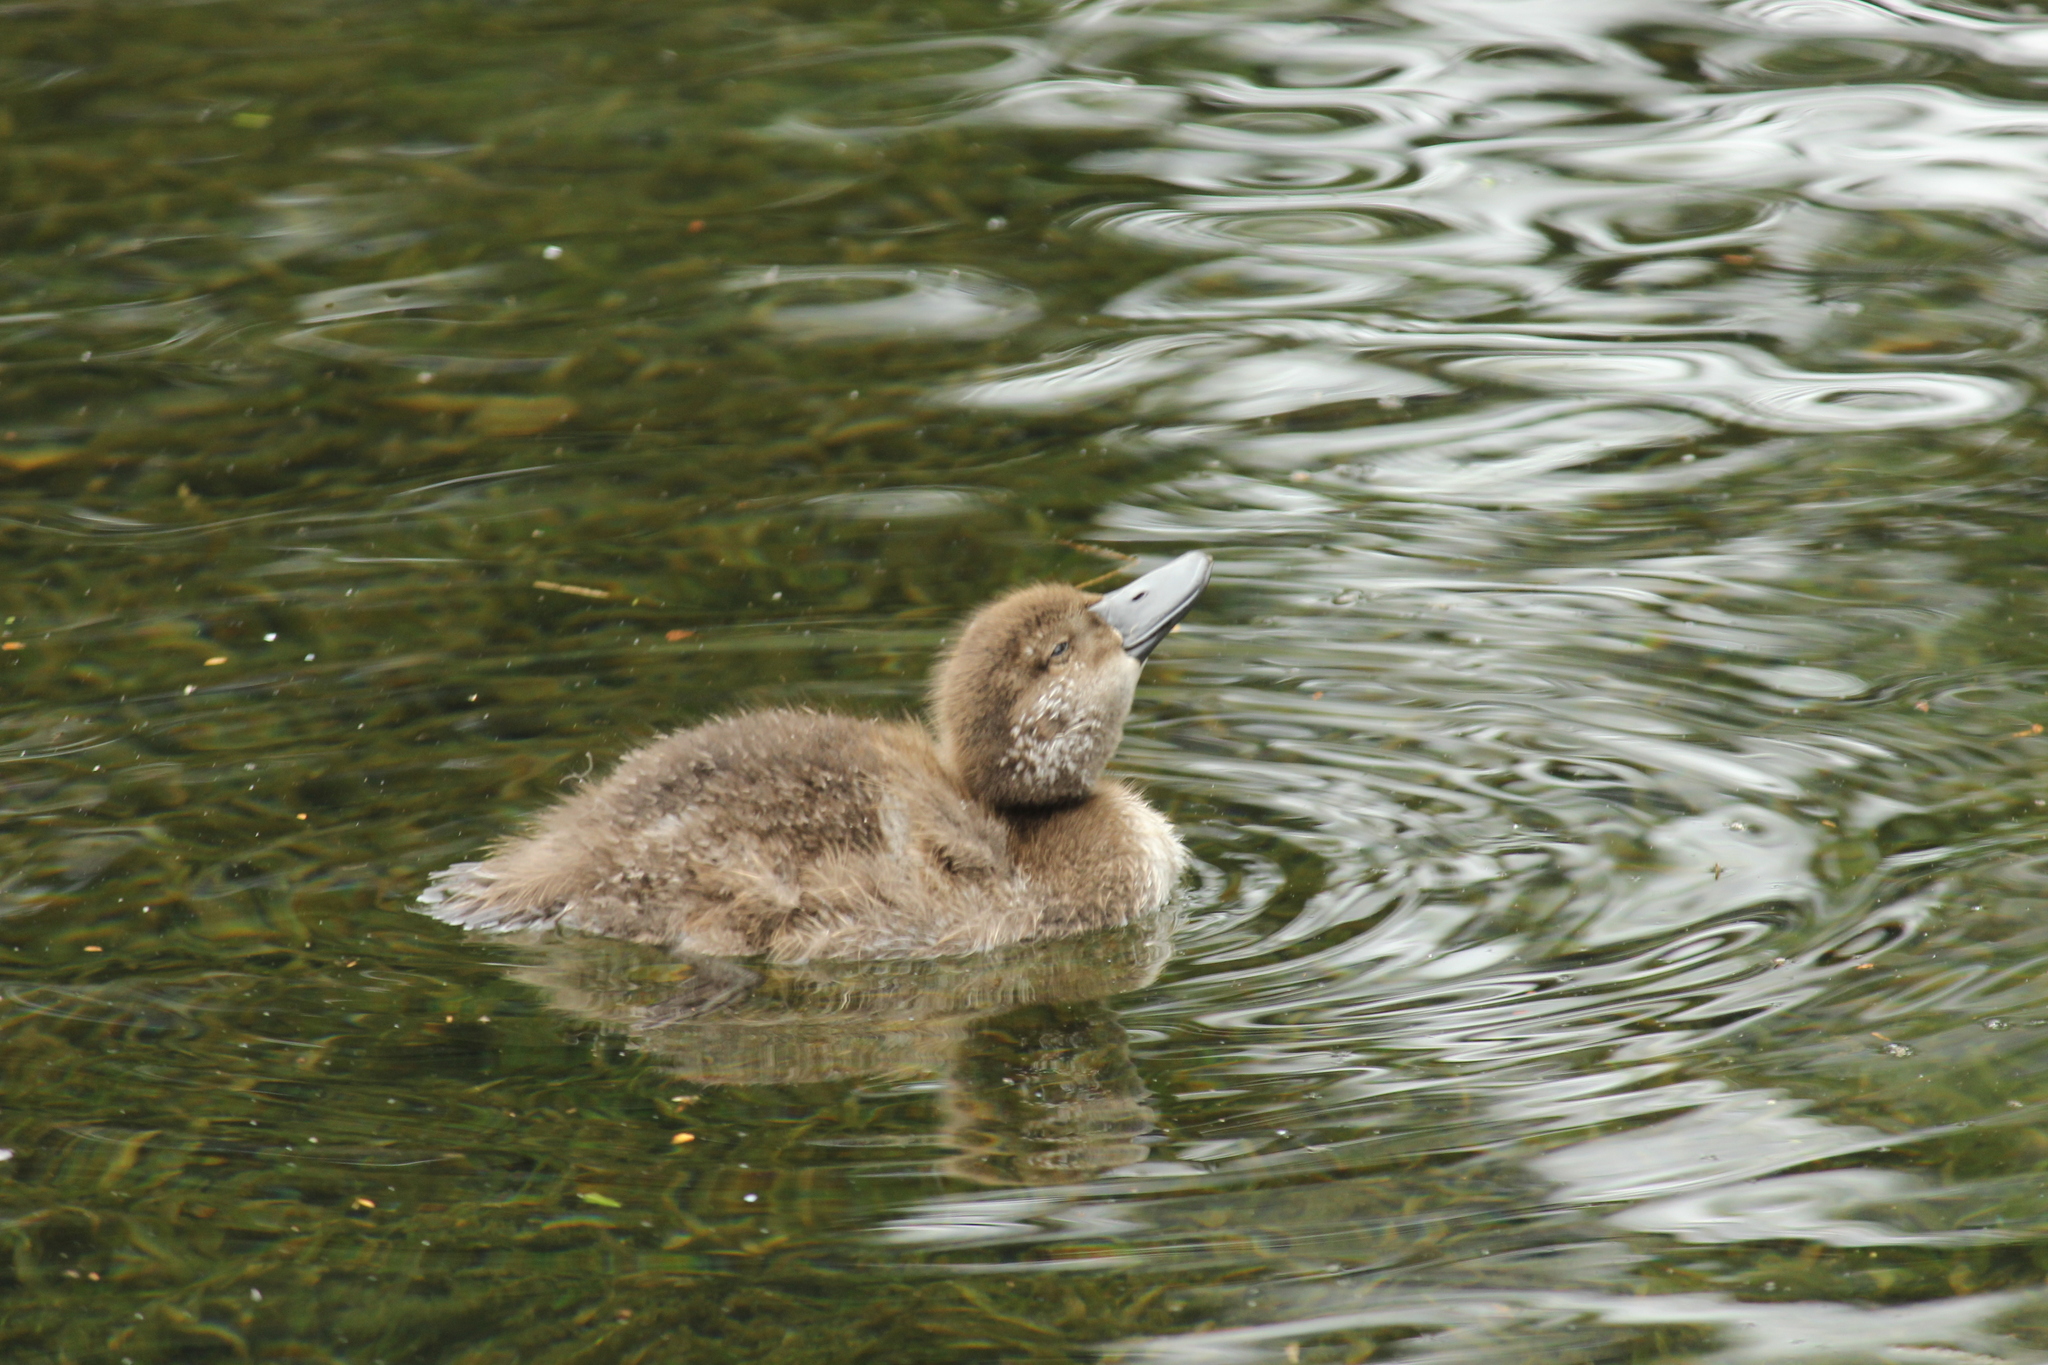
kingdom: Animalia
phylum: Chordata
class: Aves
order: Anseriformes
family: Anatidae
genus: Aythya
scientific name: Aythya novaeseelandiae
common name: New zealand scaup
